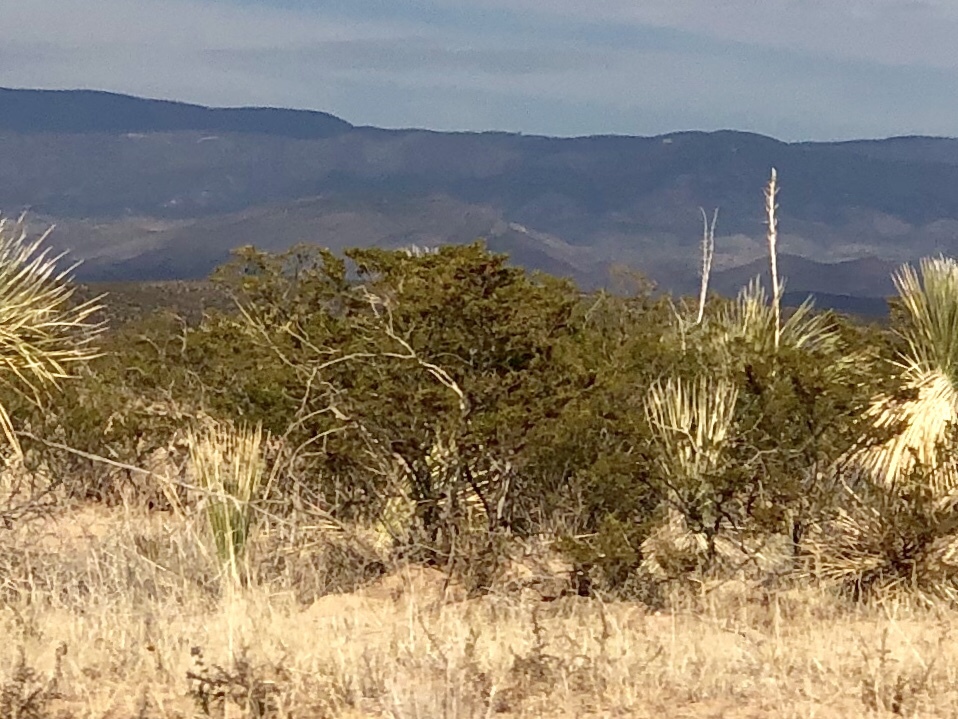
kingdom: Plantae
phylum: Tracheophyta
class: Magnoliopsida
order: Zygophyllales
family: Zygophyllaceae
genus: Larrea
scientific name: Larrea tridentata
